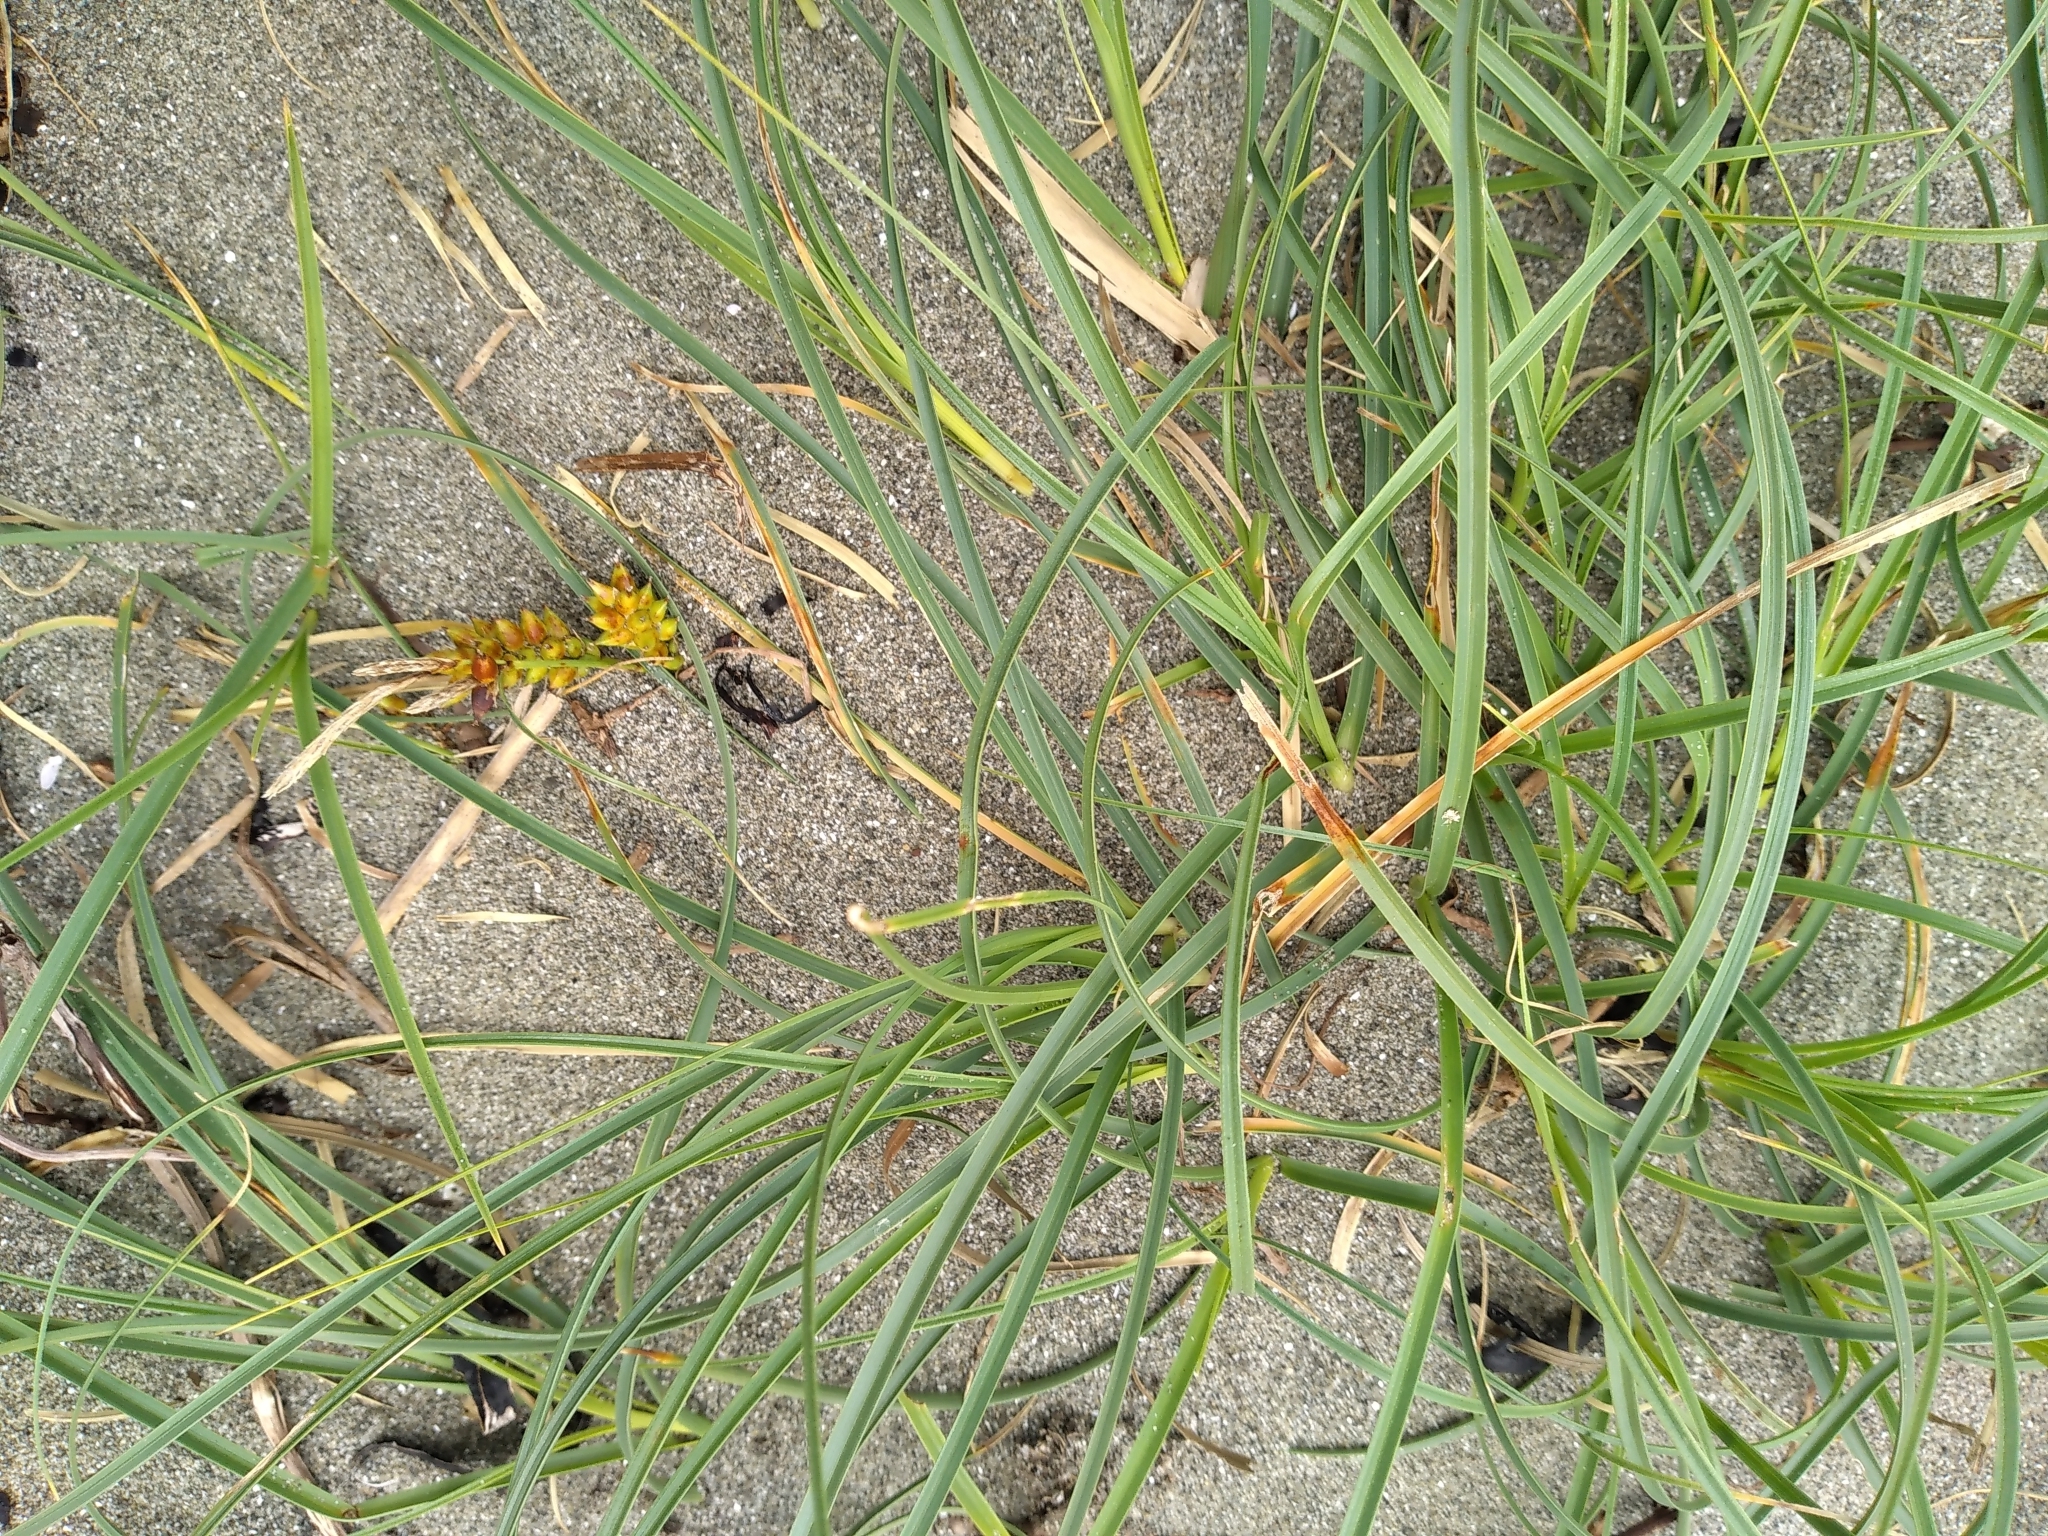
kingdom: Plantae
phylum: Tracheophyta
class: Liliopsida
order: Poales
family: Cyperaceae
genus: Carex
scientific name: Carex pumila
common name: Dwarf sedge
